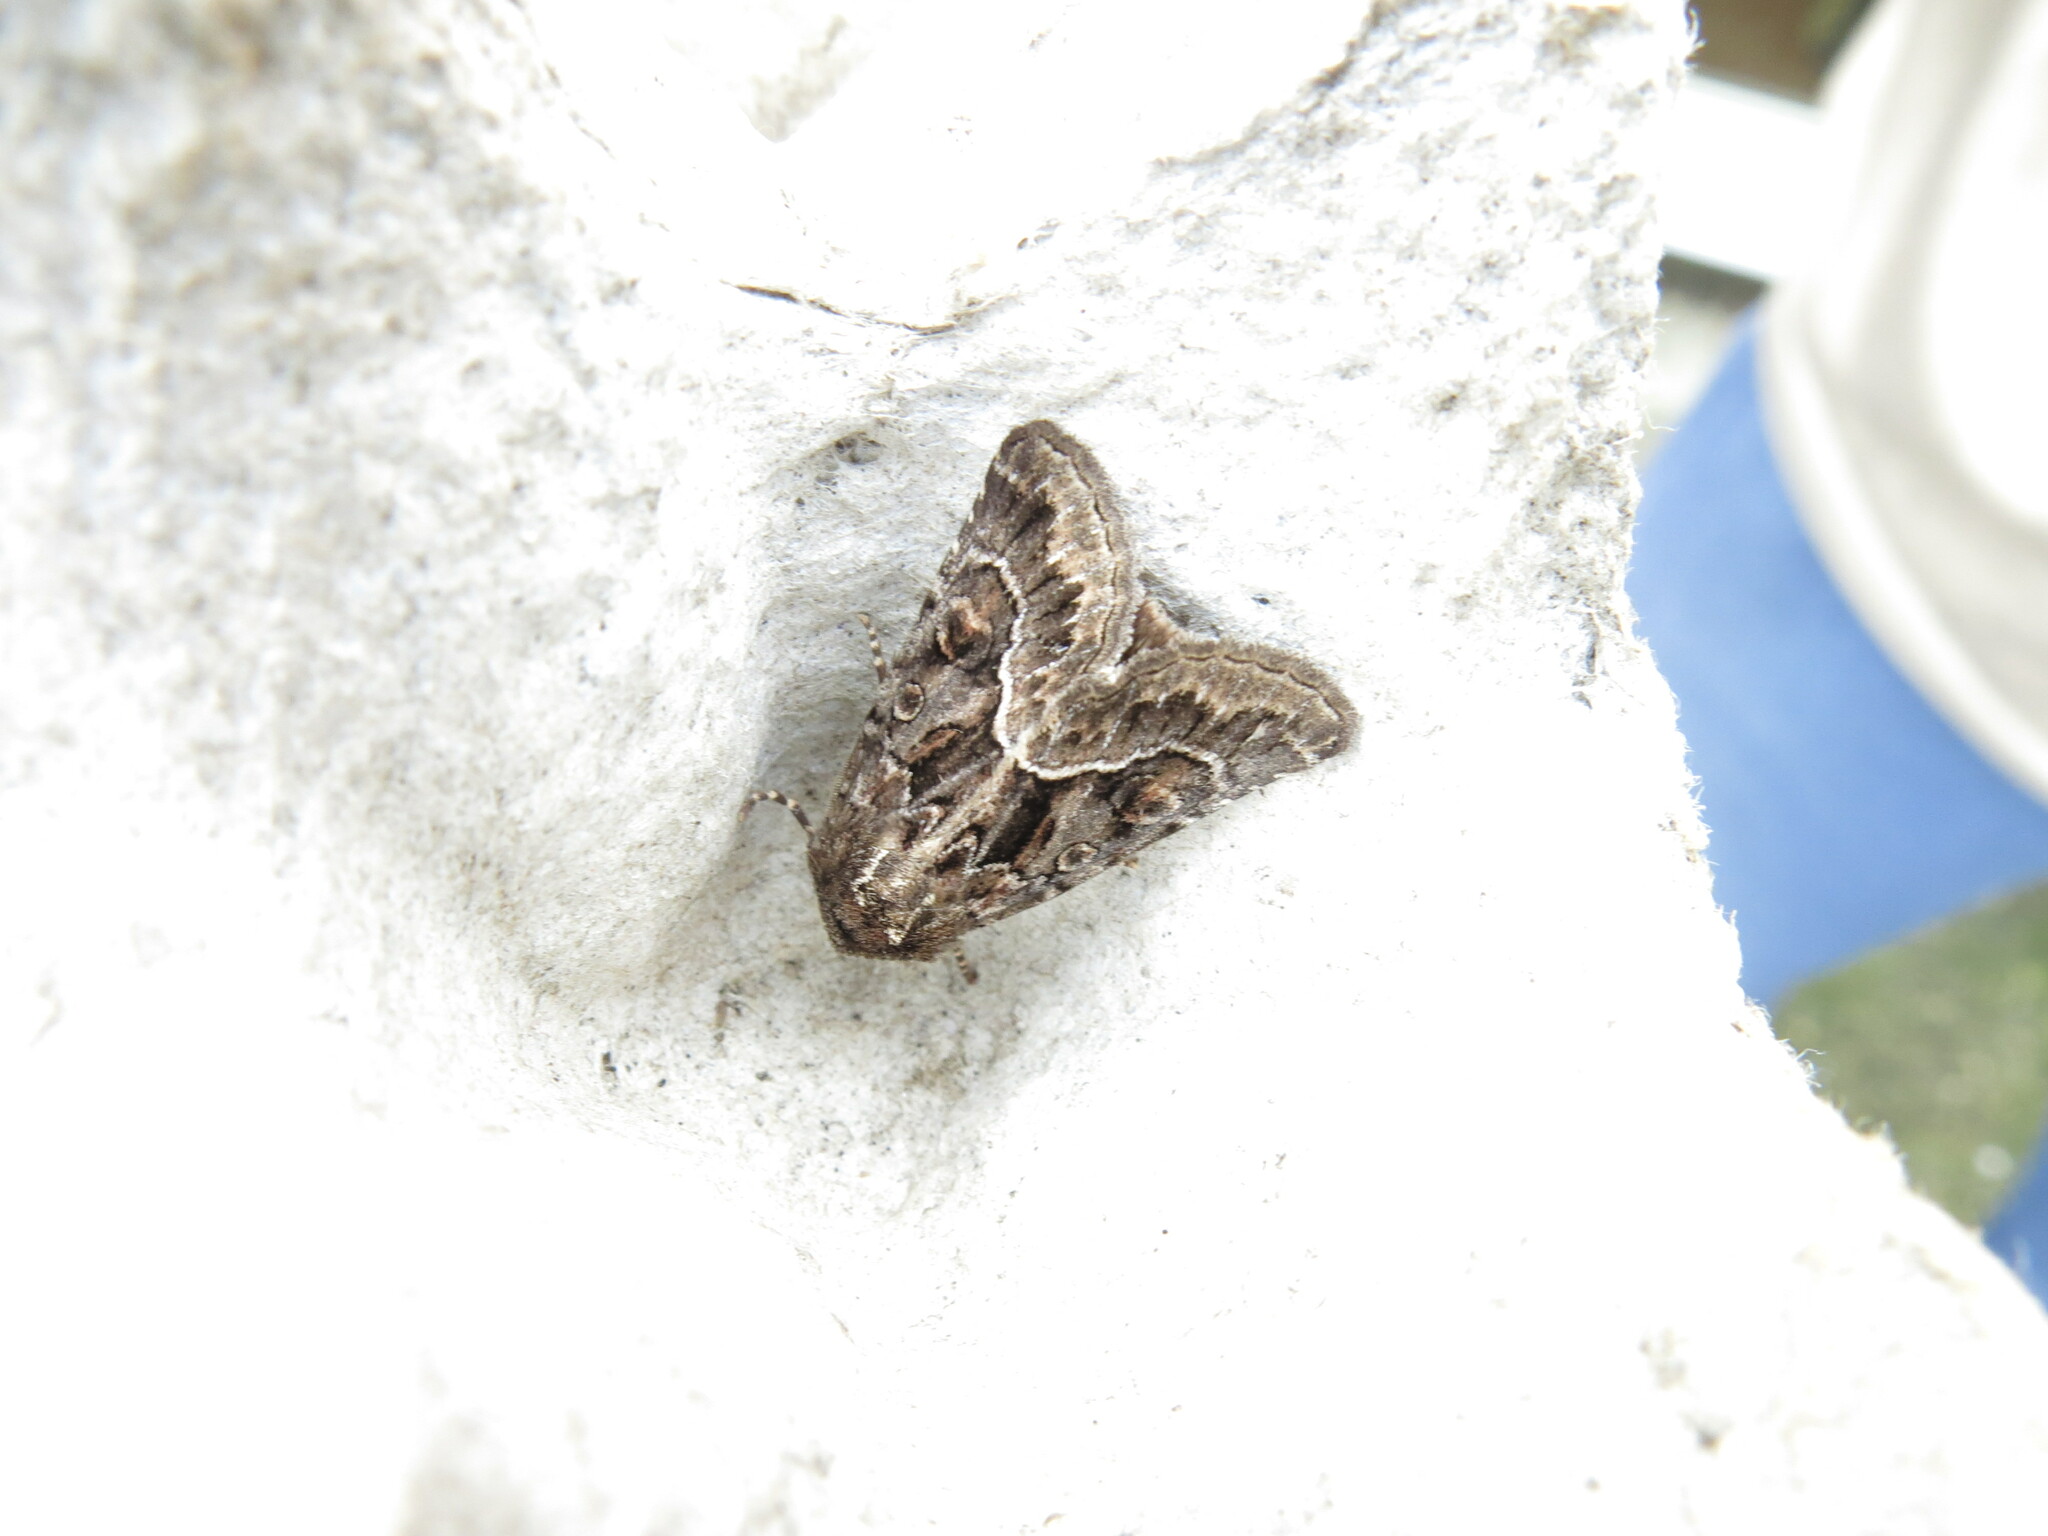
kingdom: Animalia
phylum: Arthropoda
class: Insecta
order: Lepidoptera
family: Noctuidae
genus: Thalpophila
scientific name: Thalpophila matura
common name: Straw underwing
